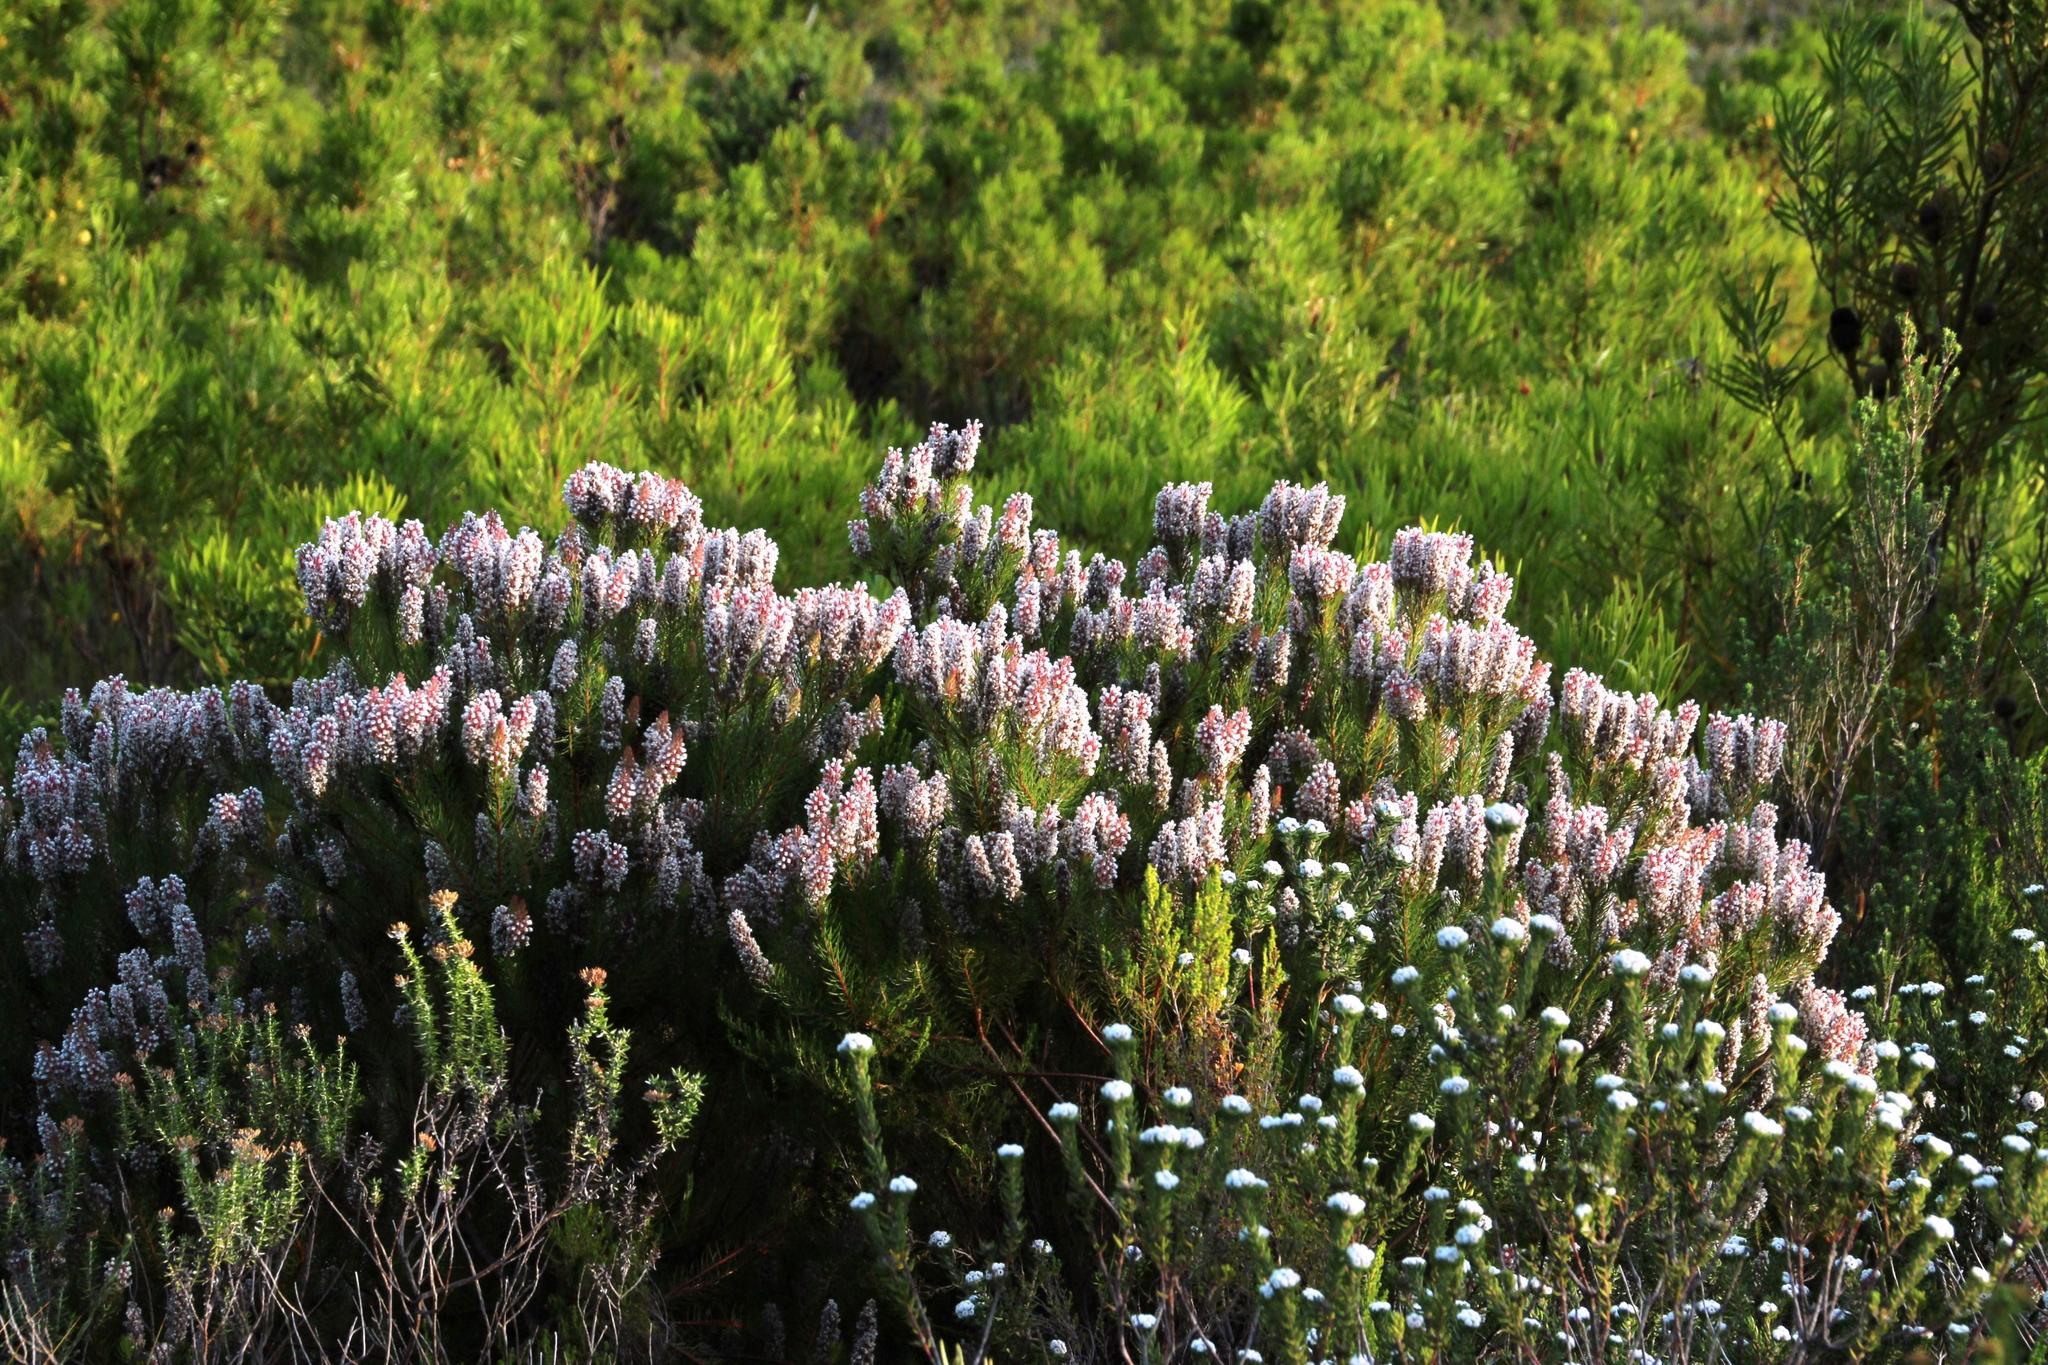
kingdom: Plantae
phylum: Tracheophyta
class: Magnoliopsida
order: Proteales
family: Proteaceae
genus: Spatalla
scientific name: Spatalla parilis
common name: Spike spoon
